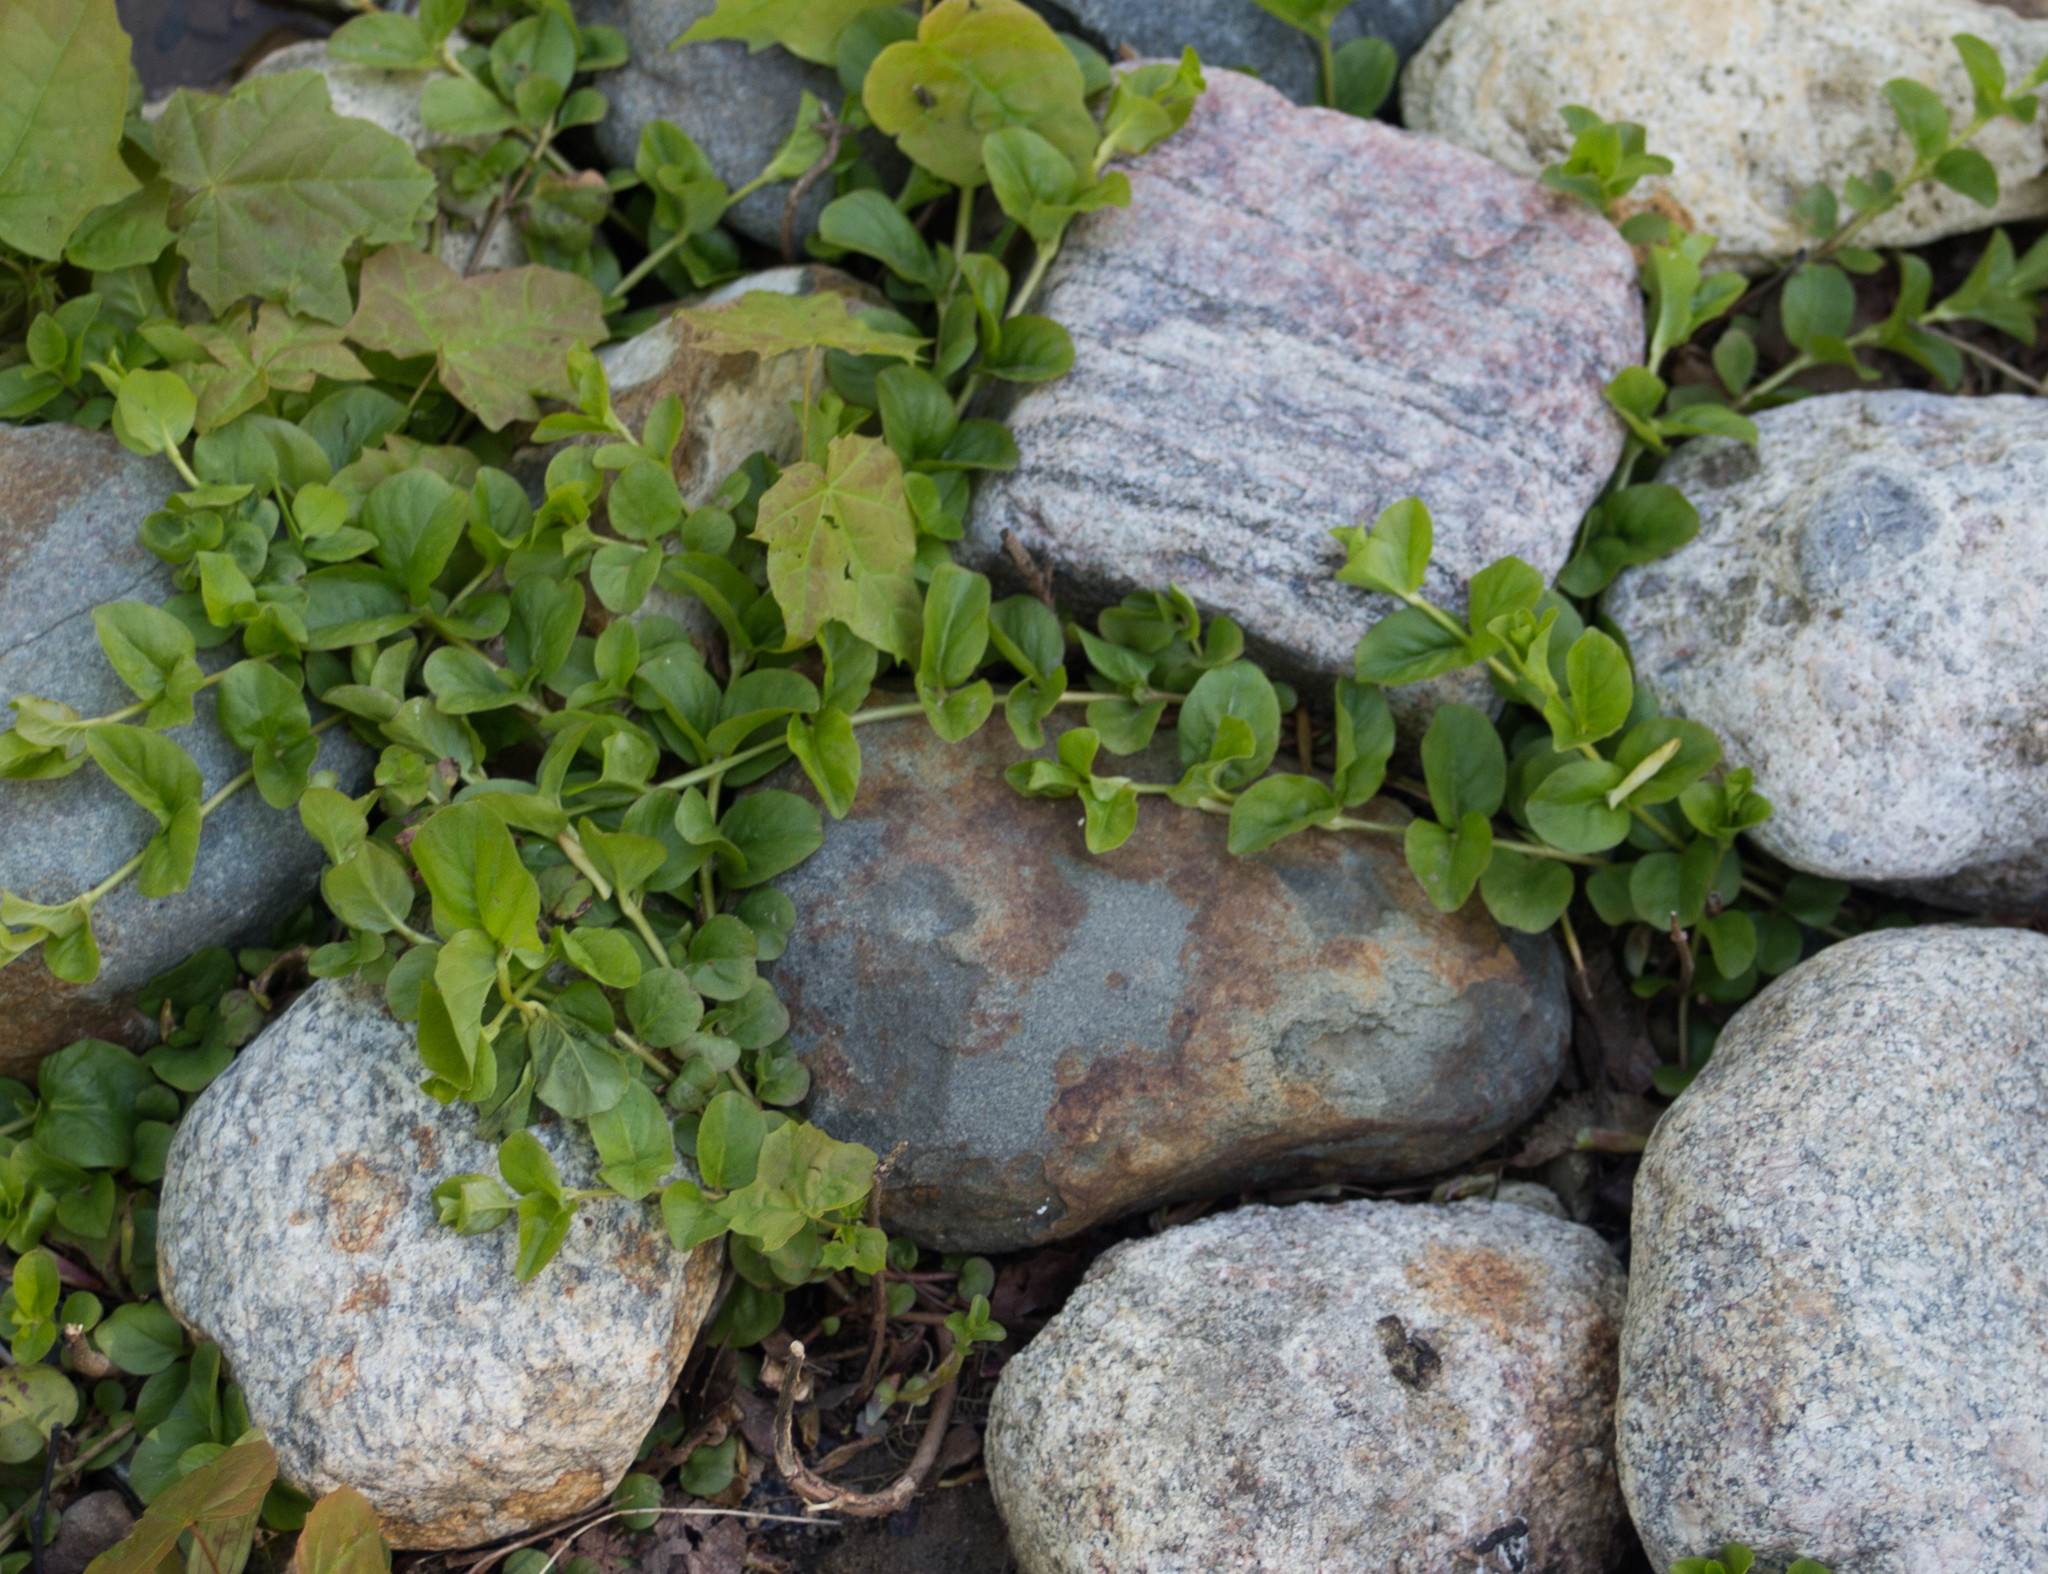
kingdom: Plantae
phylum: Tracheophyta
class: Magnoliopsida
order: Ericales
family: Primulaceae
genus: Lysimachia
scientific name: Lysimachia nummularia
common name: Moneywort
